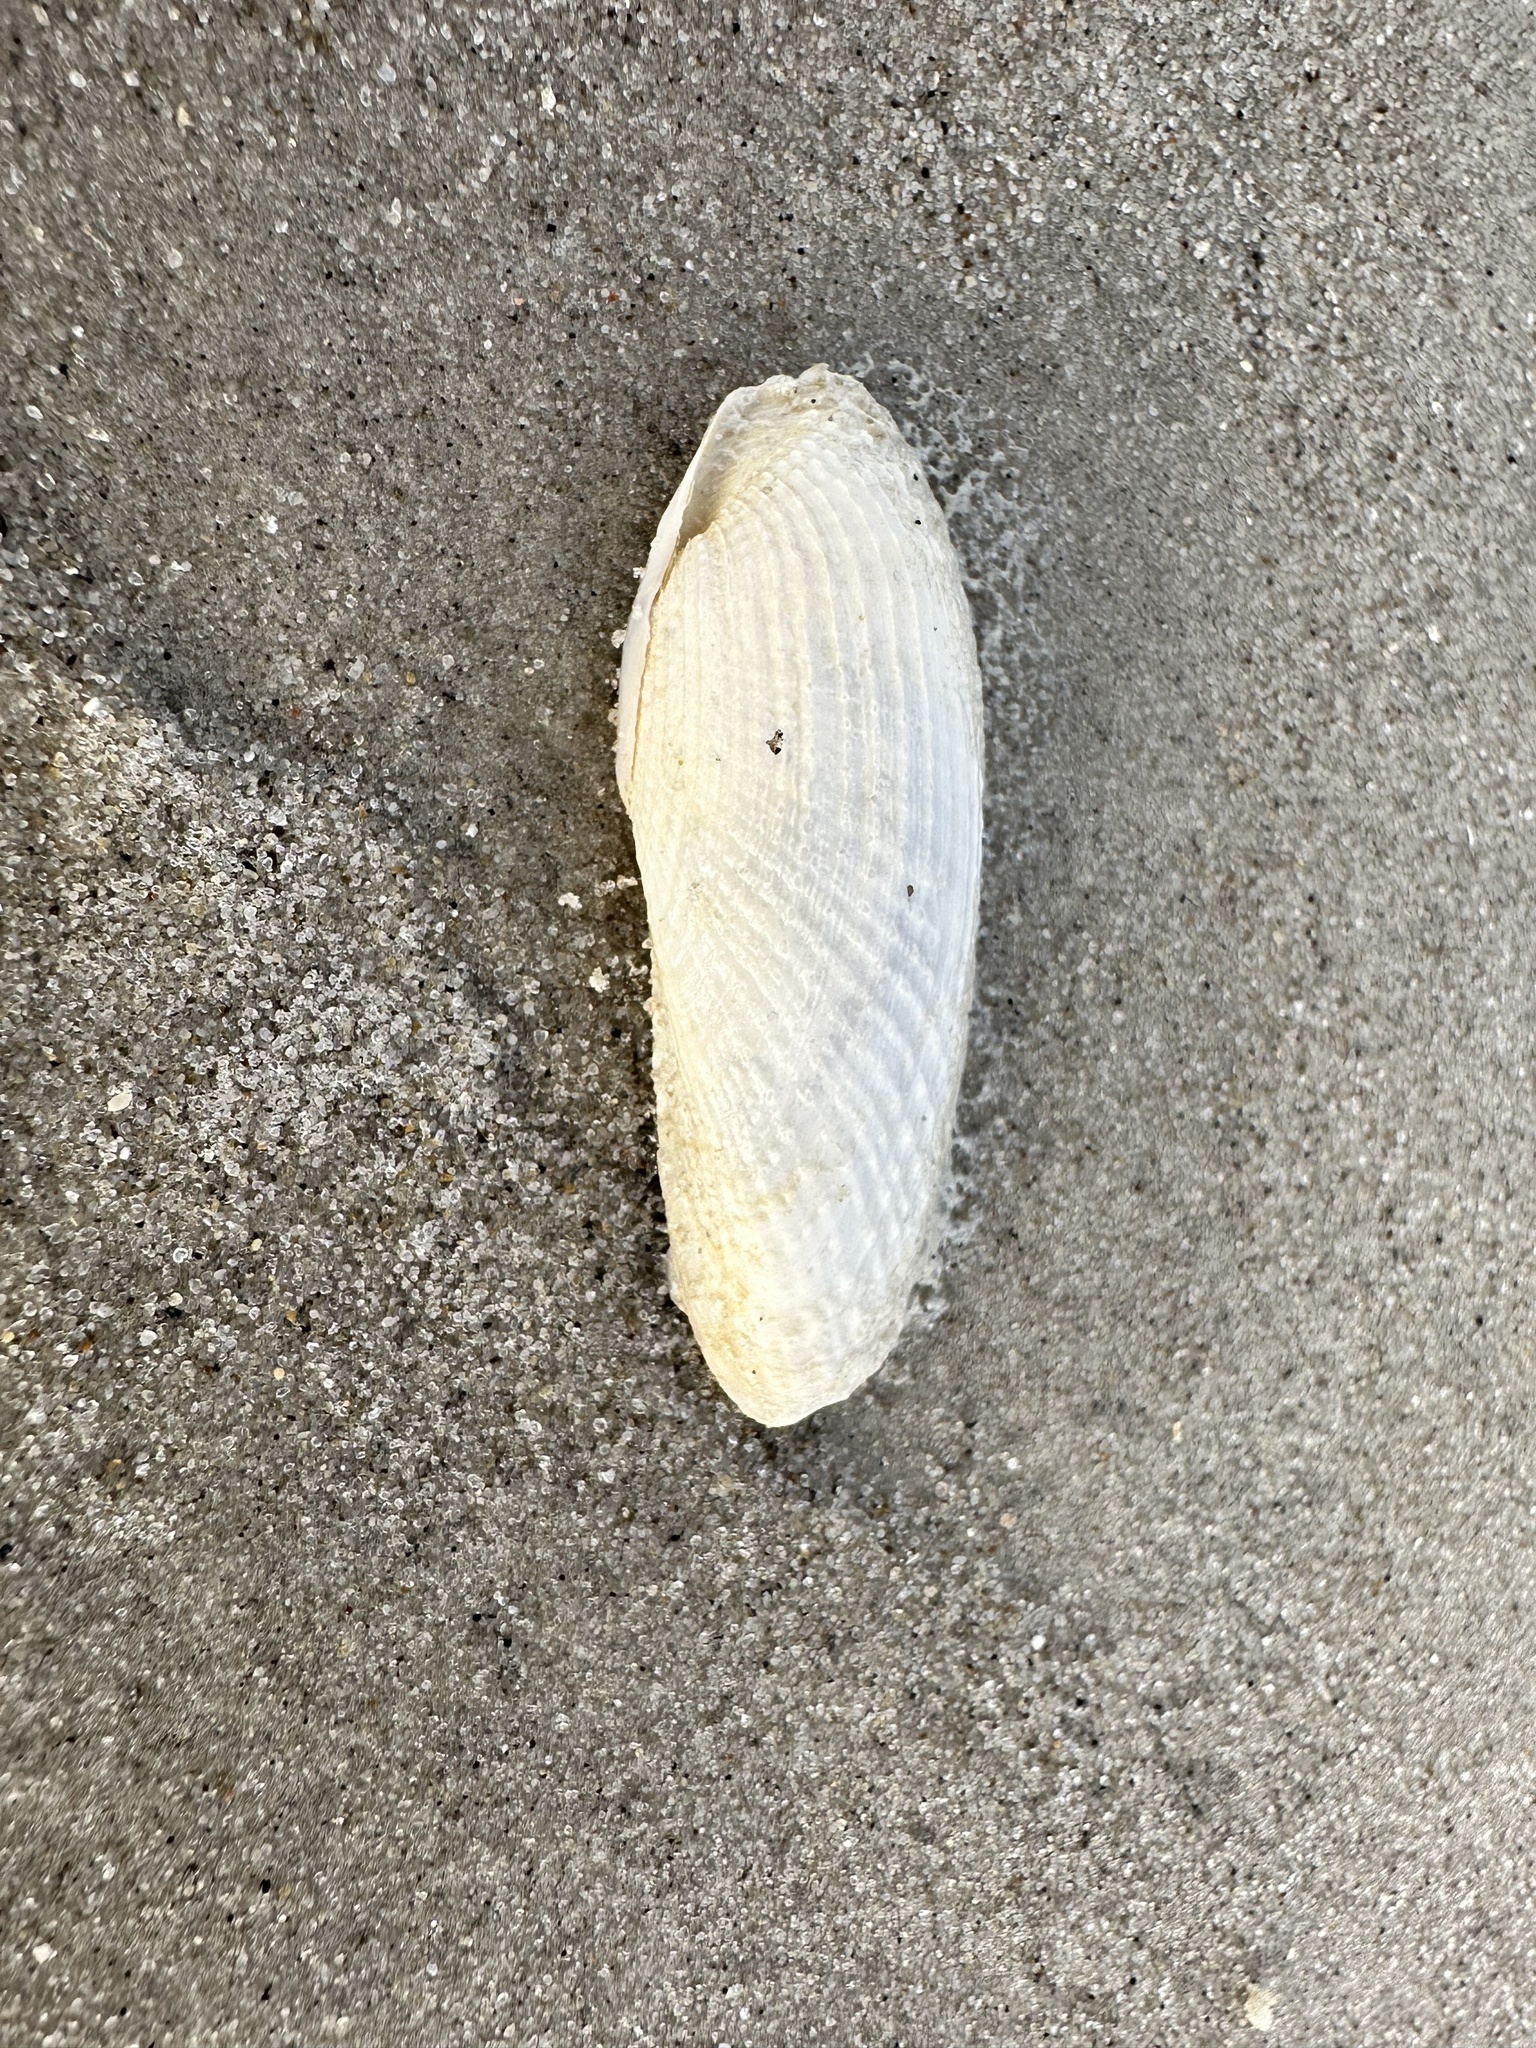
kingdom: Animalia
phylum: Mollusca
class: Bivalvia
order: Myida
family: Pholadidae
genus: Barnea
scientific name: Barnea candida
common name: White piddock
